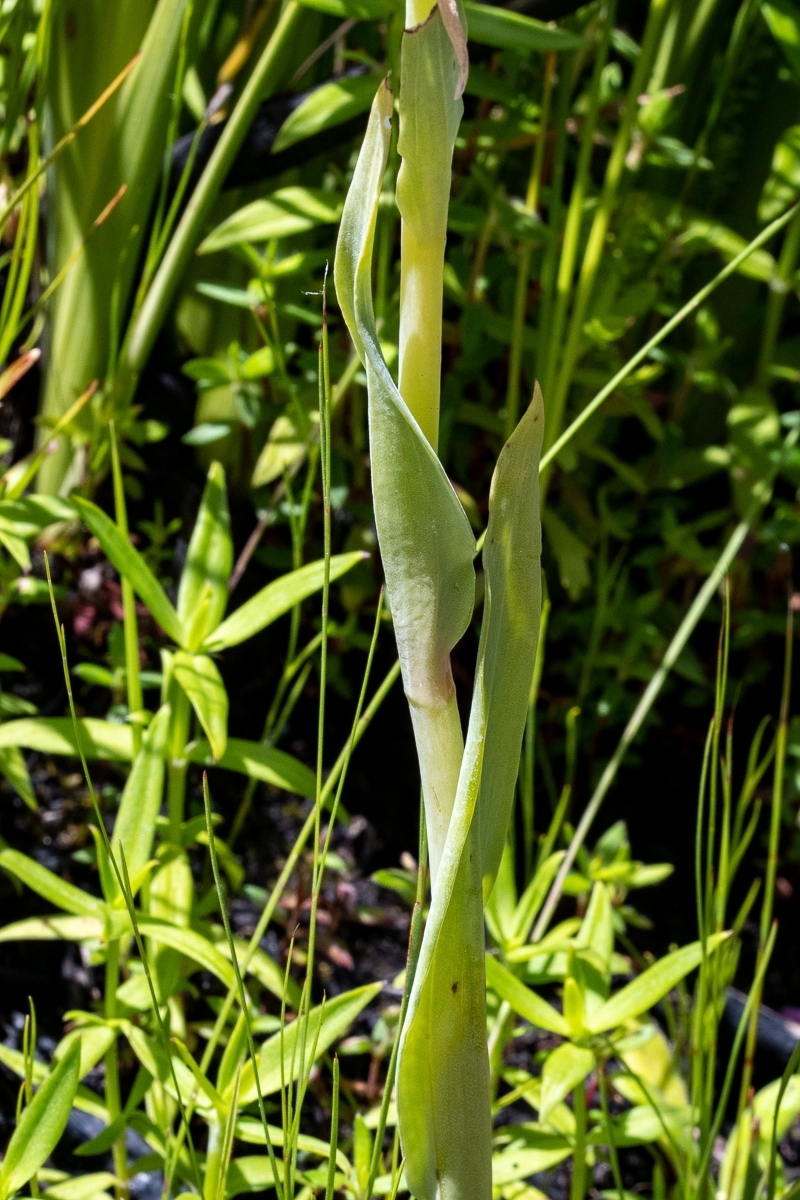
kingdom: Plantae
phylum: Tracheophyta
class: Liliopsida
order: Asparagales
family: Orchidaceae
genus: Pterygodium
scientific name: Pterygodium acutifolium
